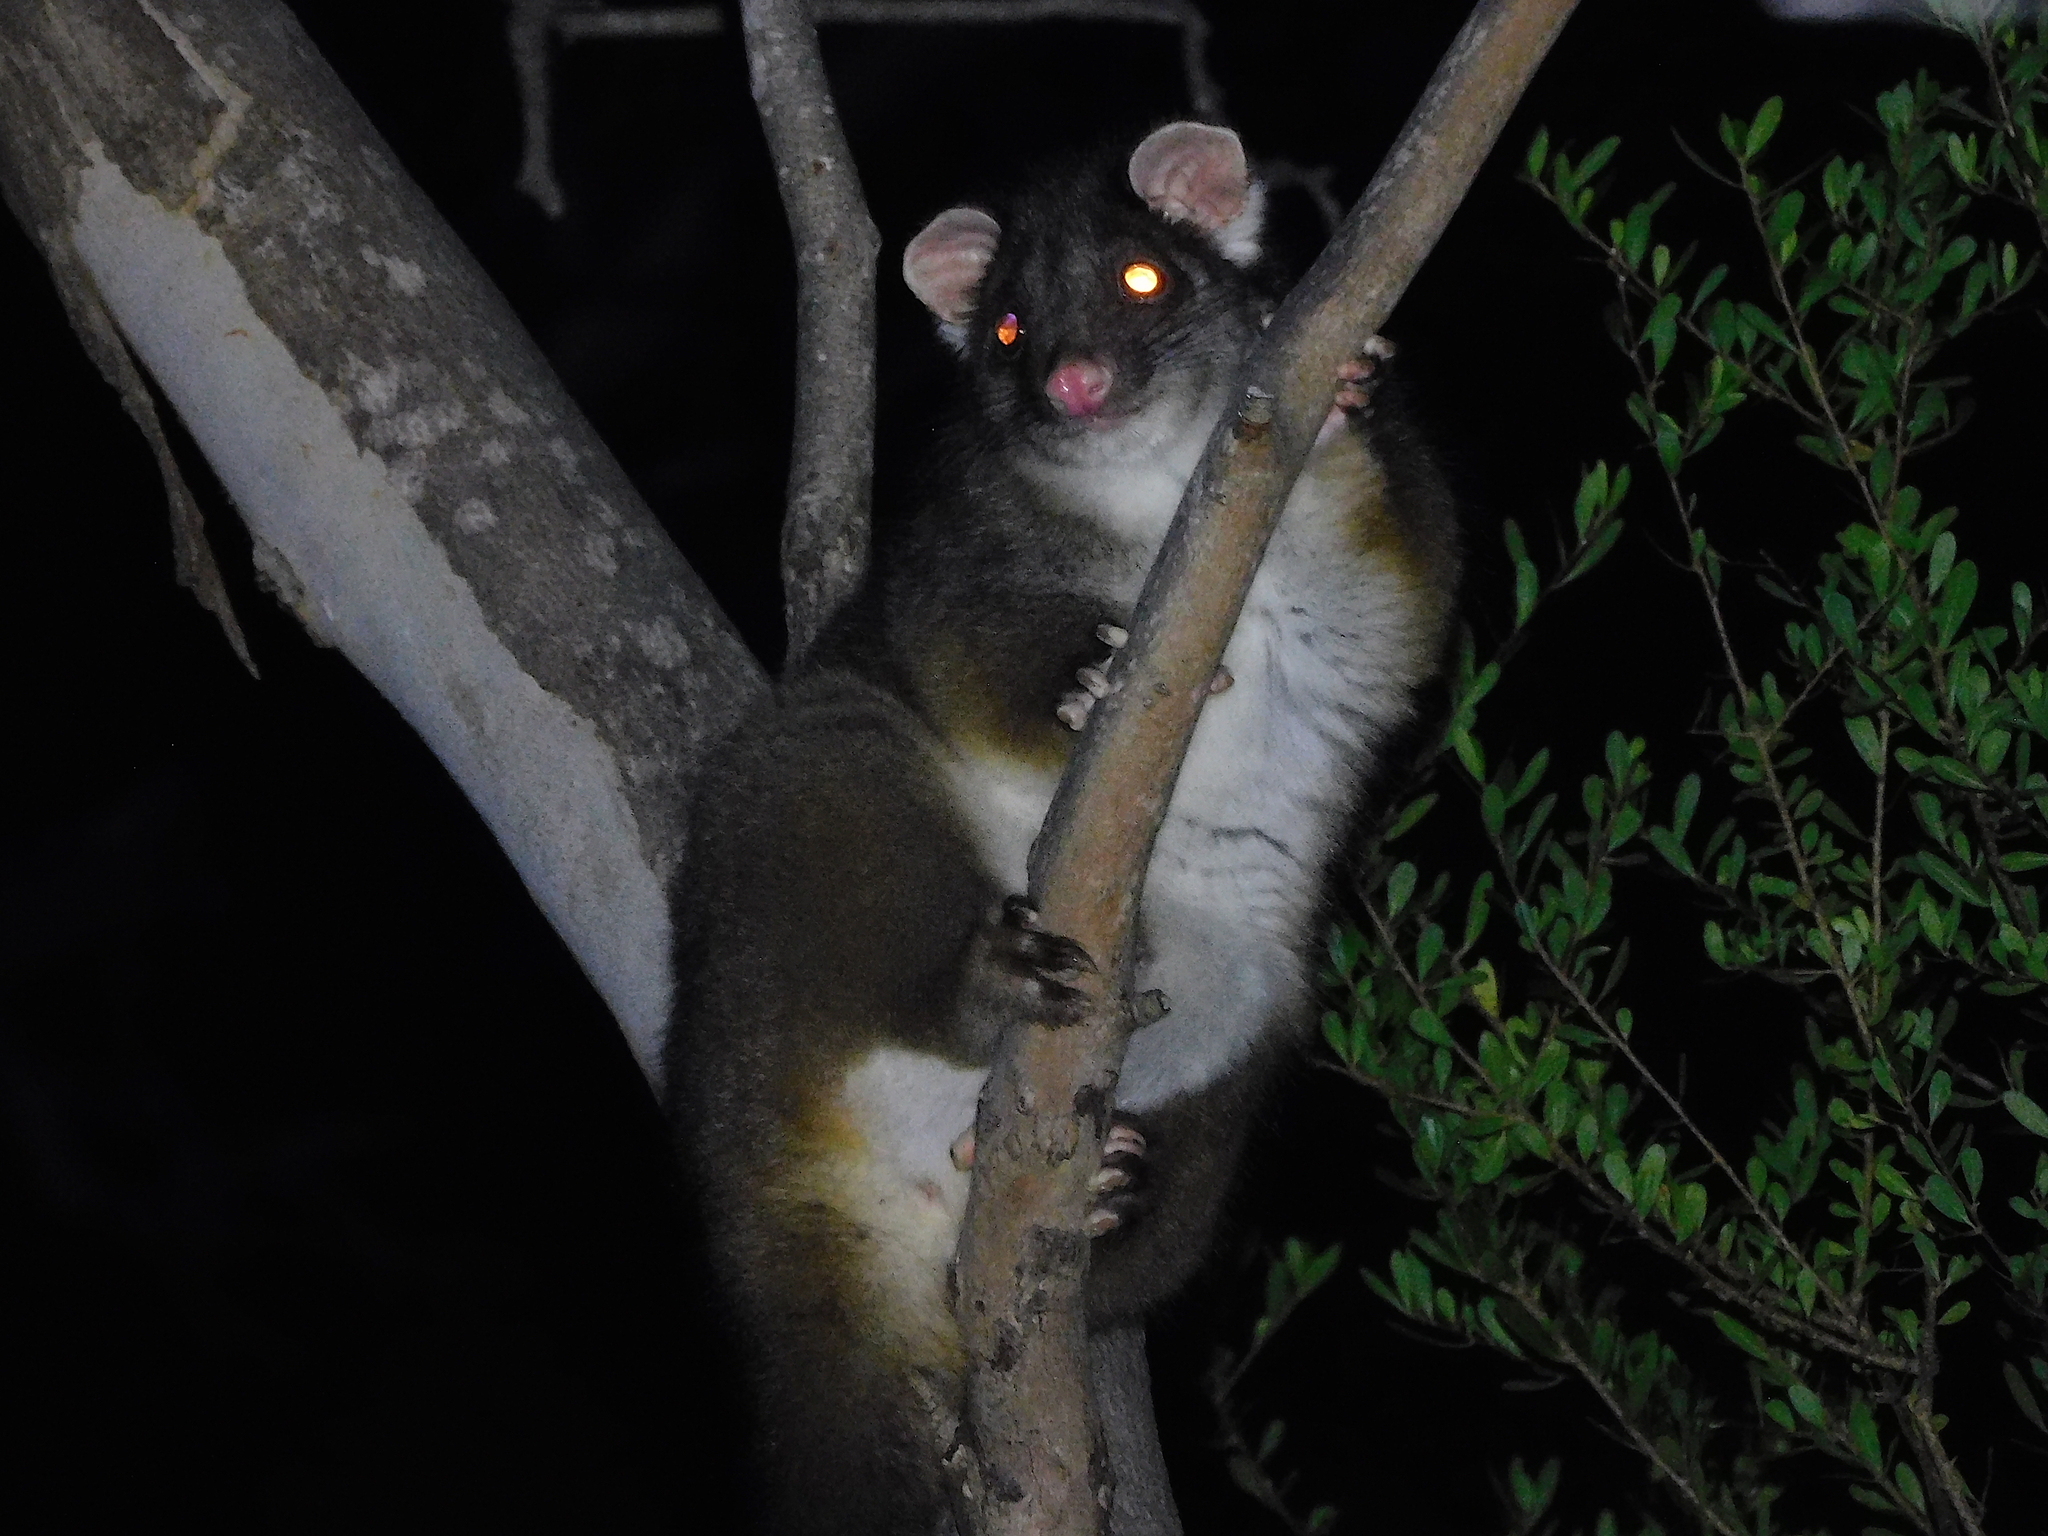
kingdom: Animalia
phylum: Chordata
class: Mammalia
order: Diprotodontia
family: Pseudocheiridae
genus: Pseudocheirus
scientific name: Pseudocheirus peregrinus
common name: Common ringtail possum
